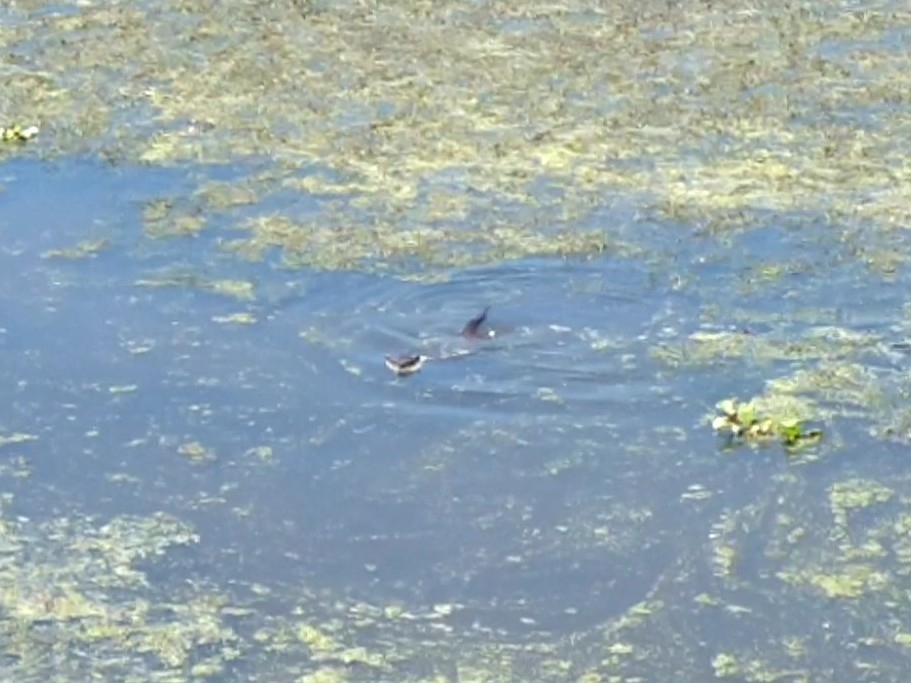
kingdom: Animalia
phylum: Chordata
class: Mammalia
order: Carnivora
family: Mustelidae
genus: Lontra
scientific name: Lontra canadensis
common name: North american river otter
